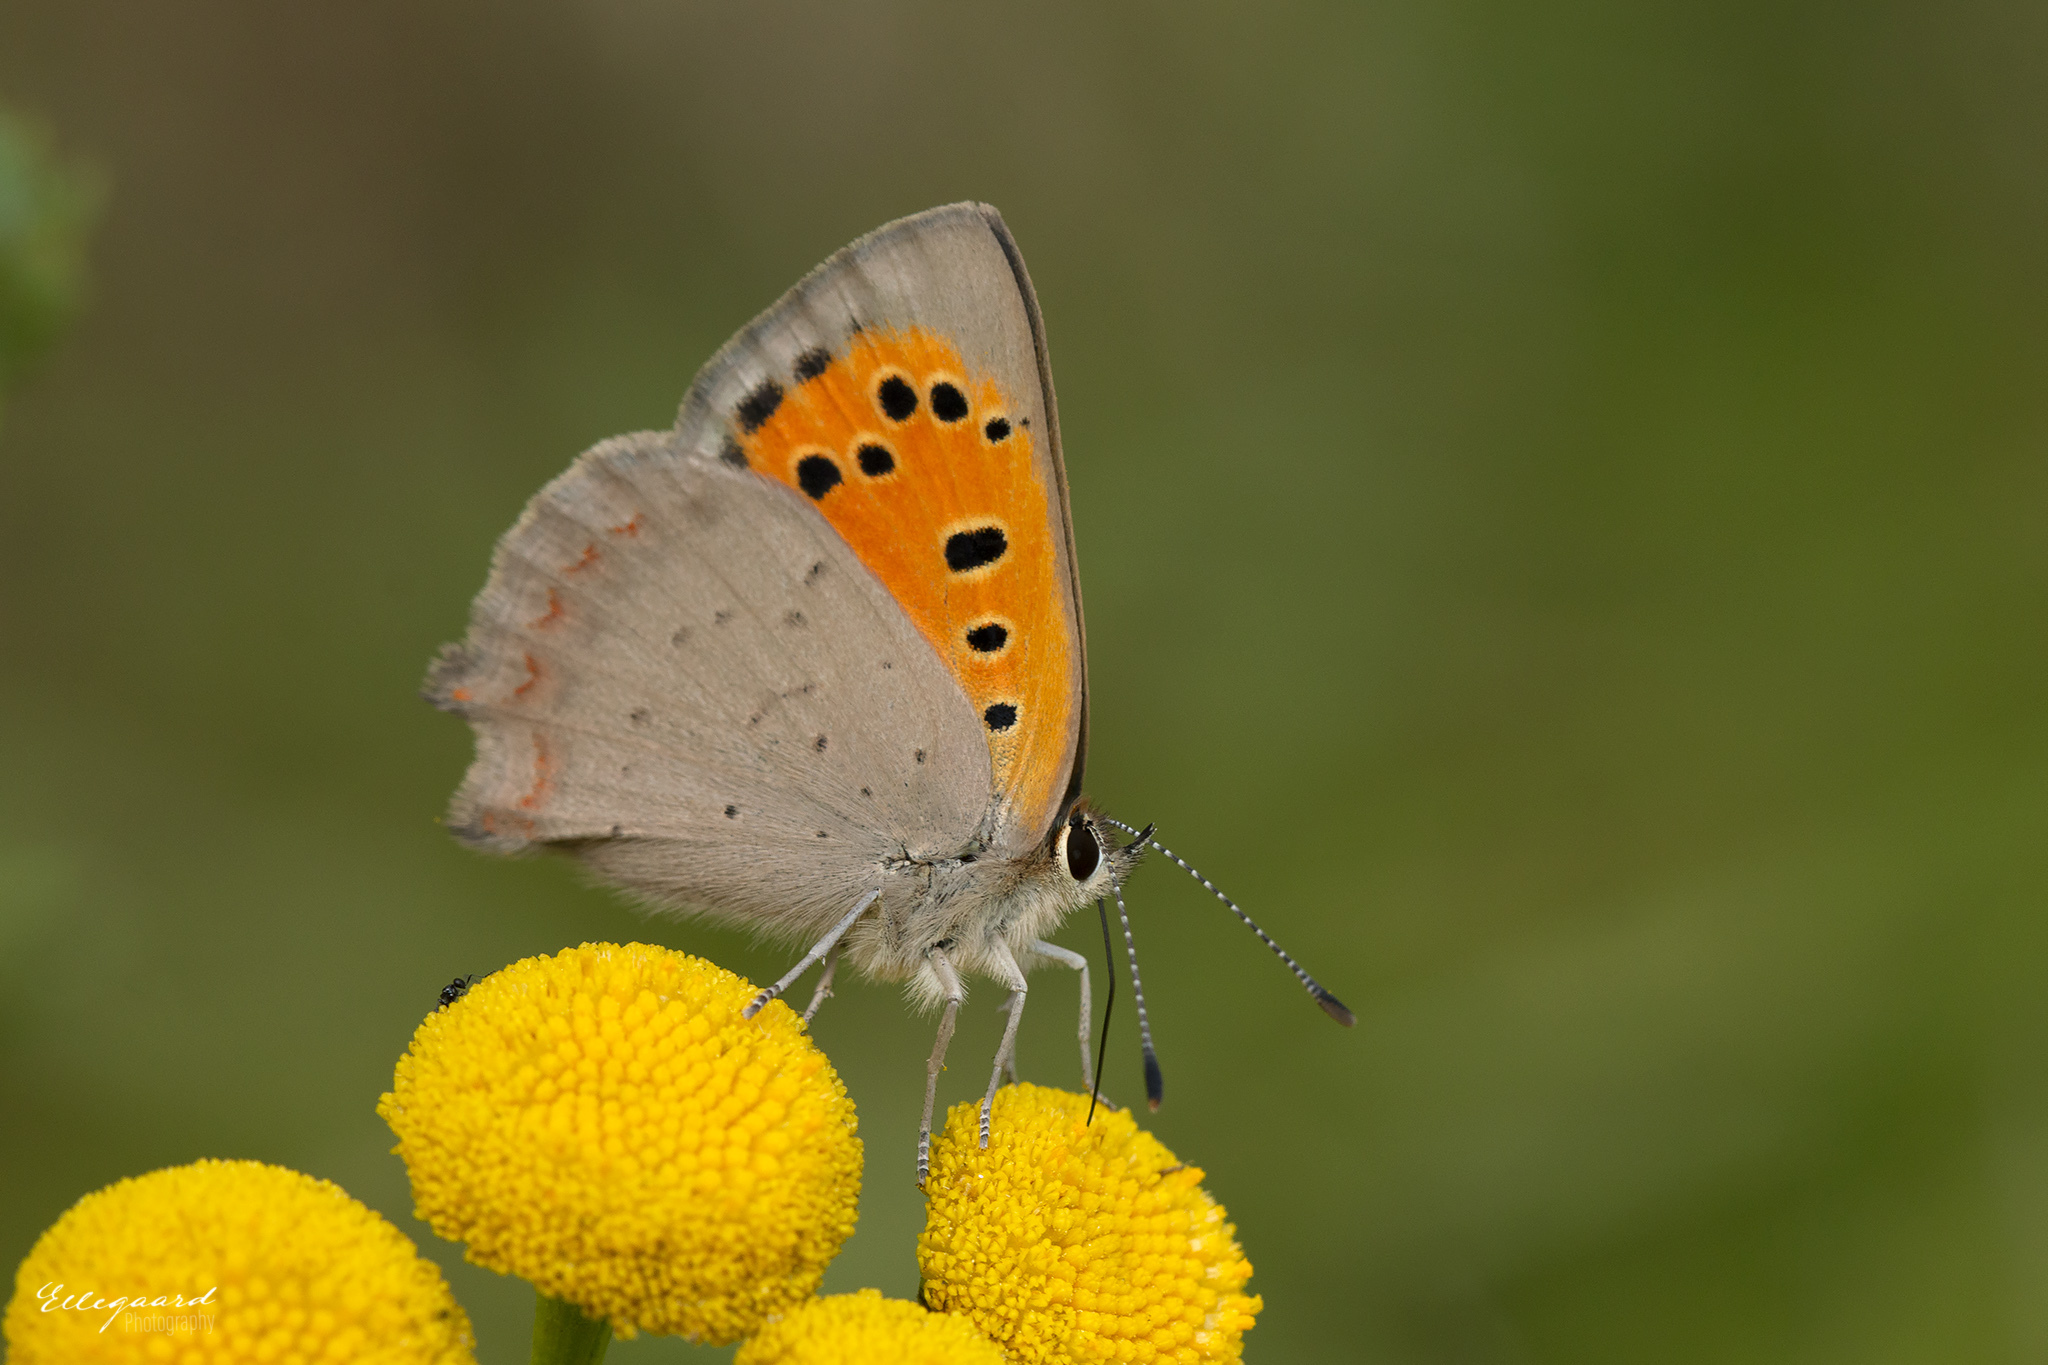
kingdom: Animalia
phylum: Arthropoda
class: Insecta
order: Lepidoptera
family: Lycaenidae
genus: Lycaena
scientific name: Lycaena phlaeas
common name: Small copper
